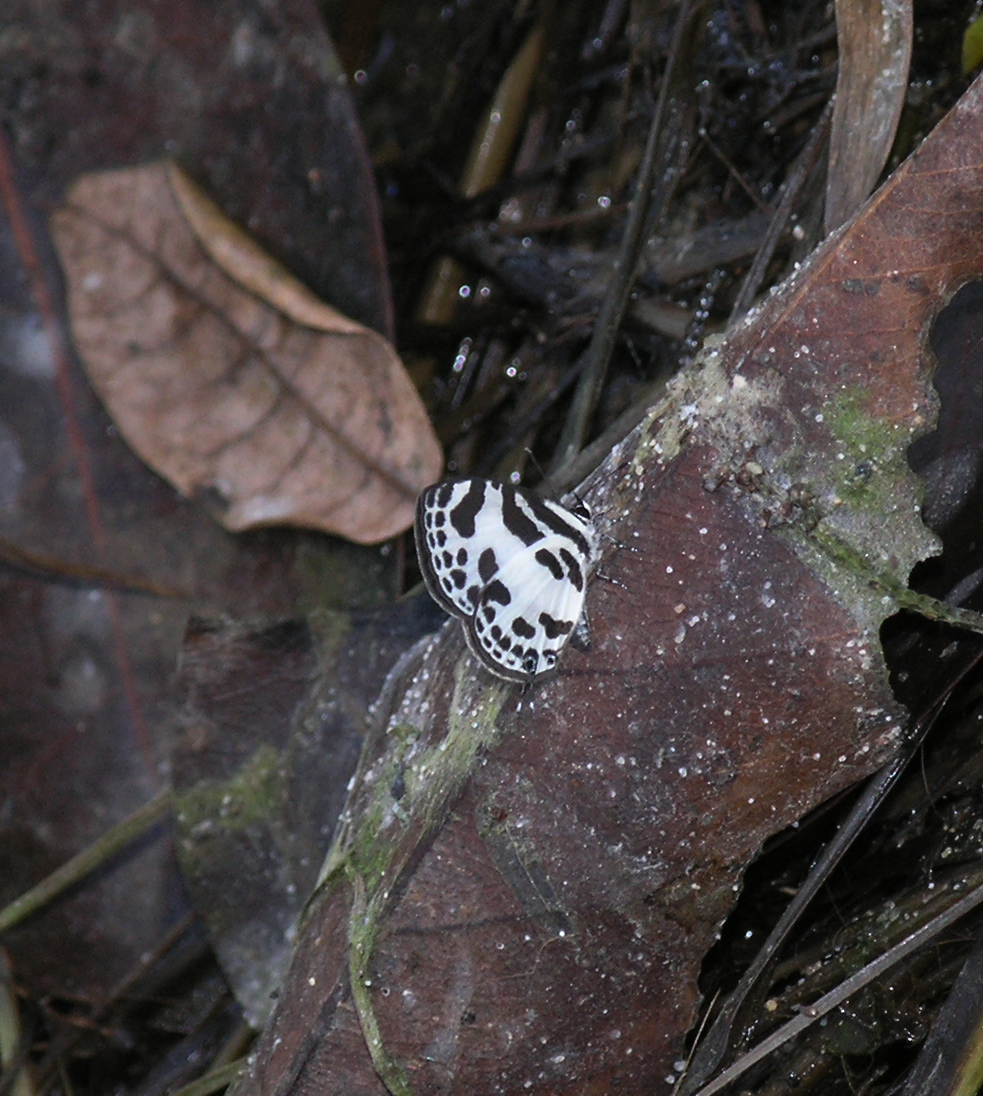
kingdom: Animalia
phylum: Arthropoda
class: Insecta
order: Lepidoptera
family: Lycaenidae
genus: Discolampa
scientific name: Discolampa ethion
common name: Banded blue pierrot
